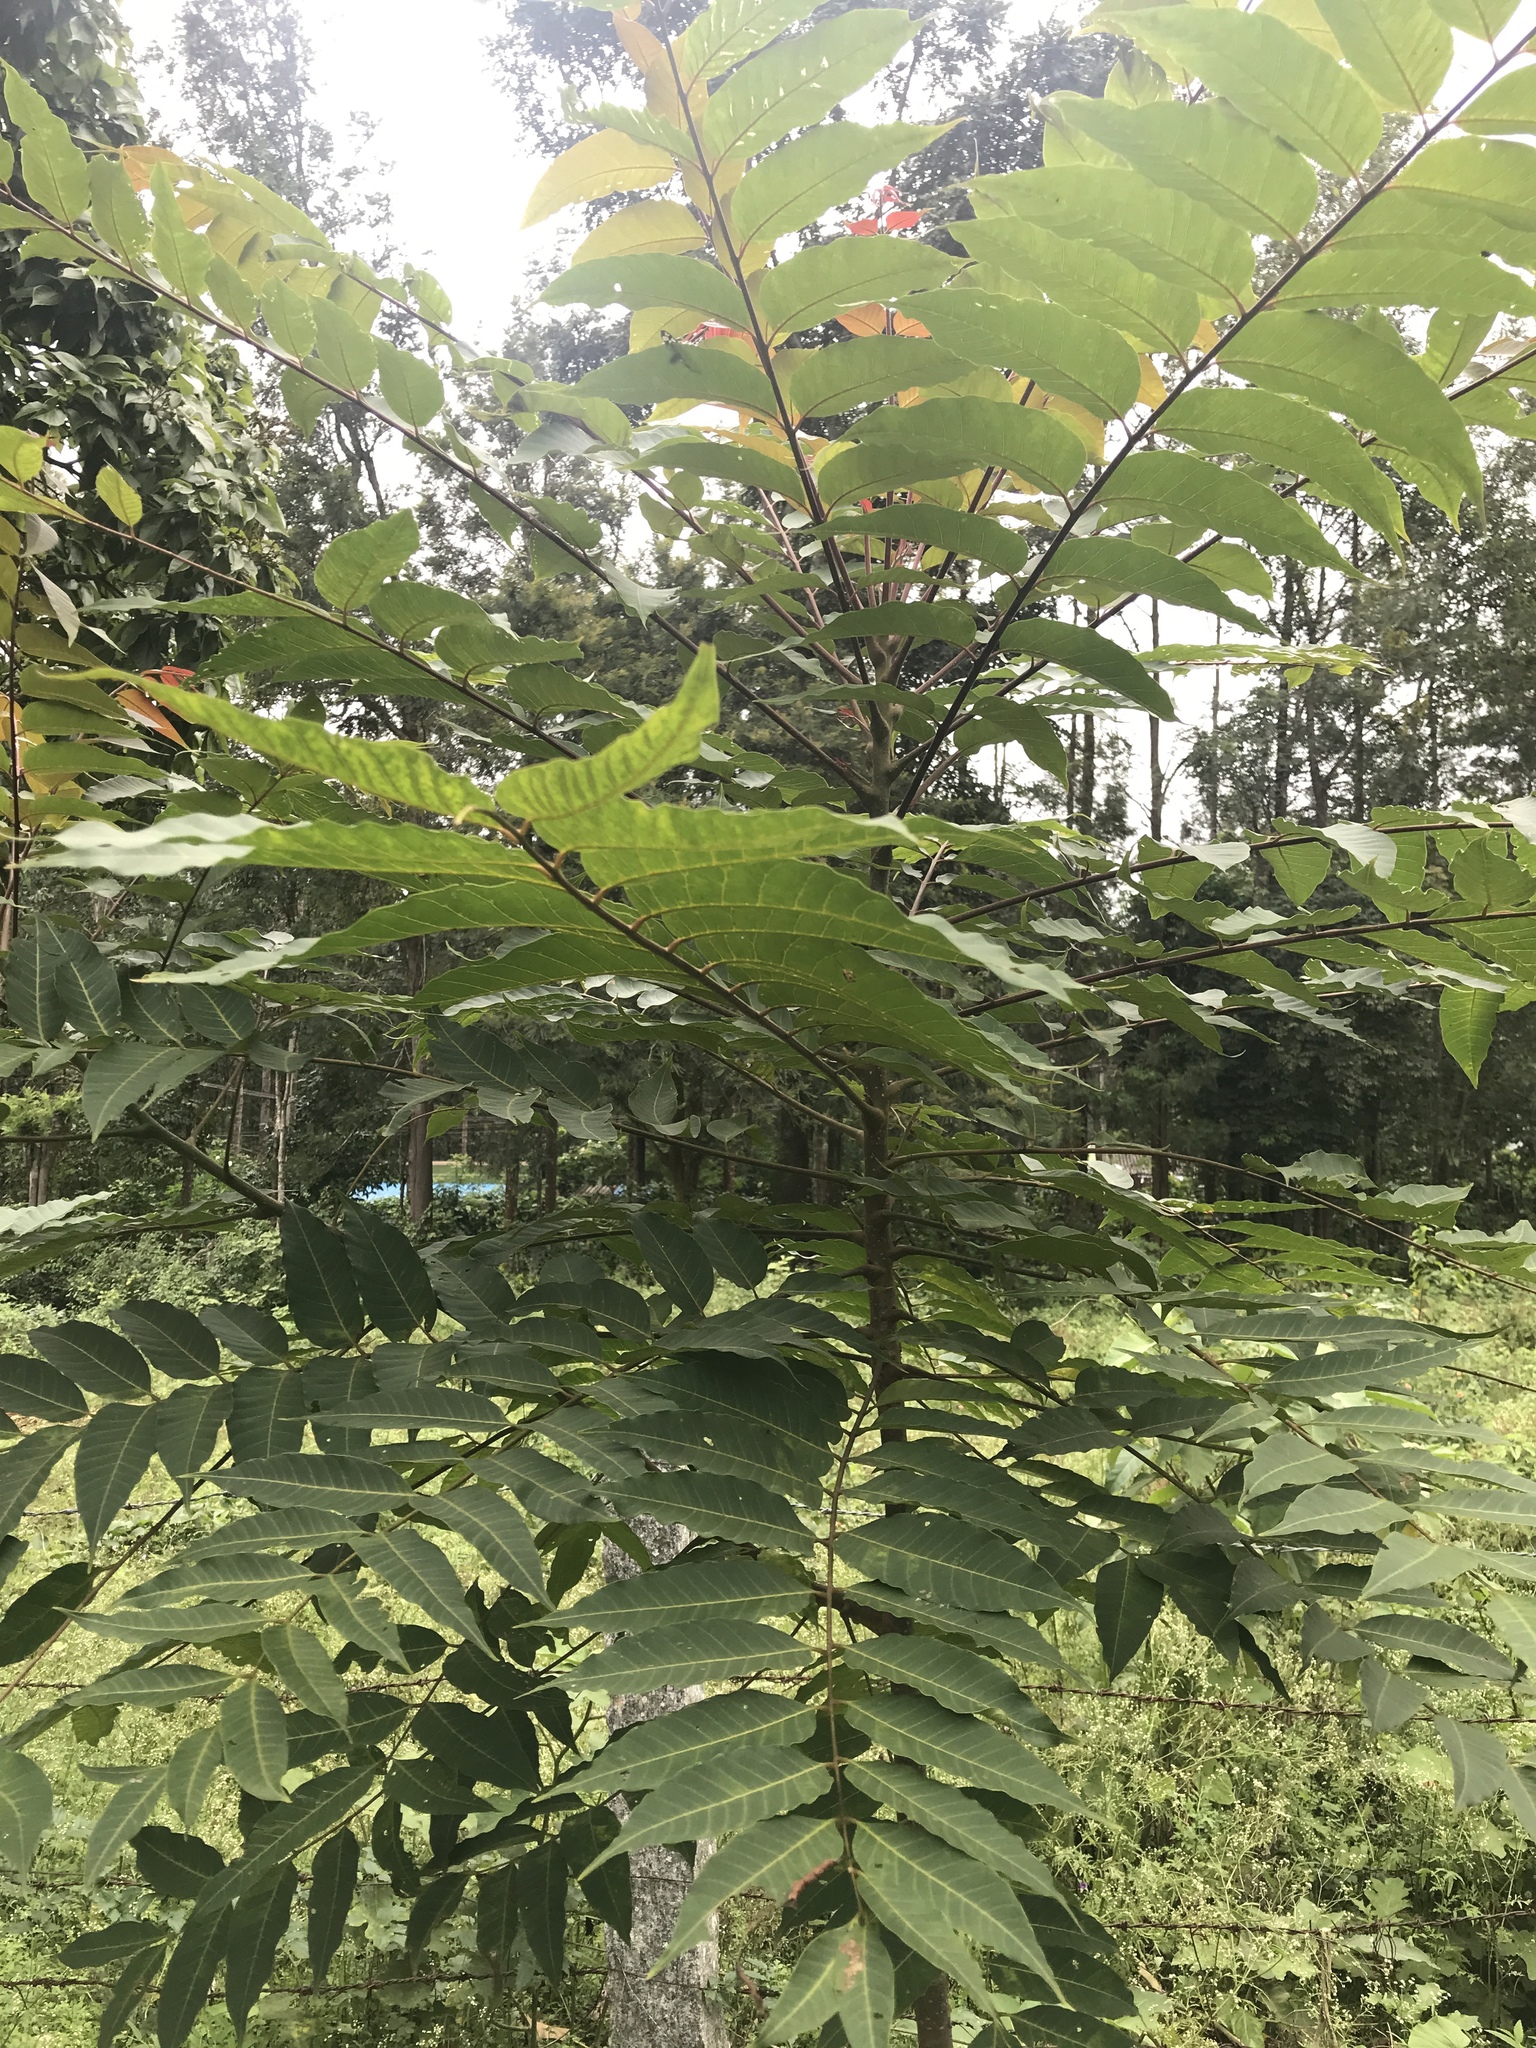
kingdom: Plantae
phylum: Tracheophyta
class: Magnoliopsida
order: Sapindales
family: Meliaceae
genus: Toona
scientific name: Toona ciliata
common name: Australian redcedar
